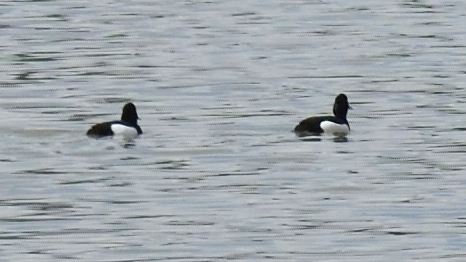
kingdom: Animalia
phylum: Chordata
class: Aves
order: Anseriformes
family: Anatidae
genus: Aythya
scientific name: Aythya fuligula
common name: Tufted duck
